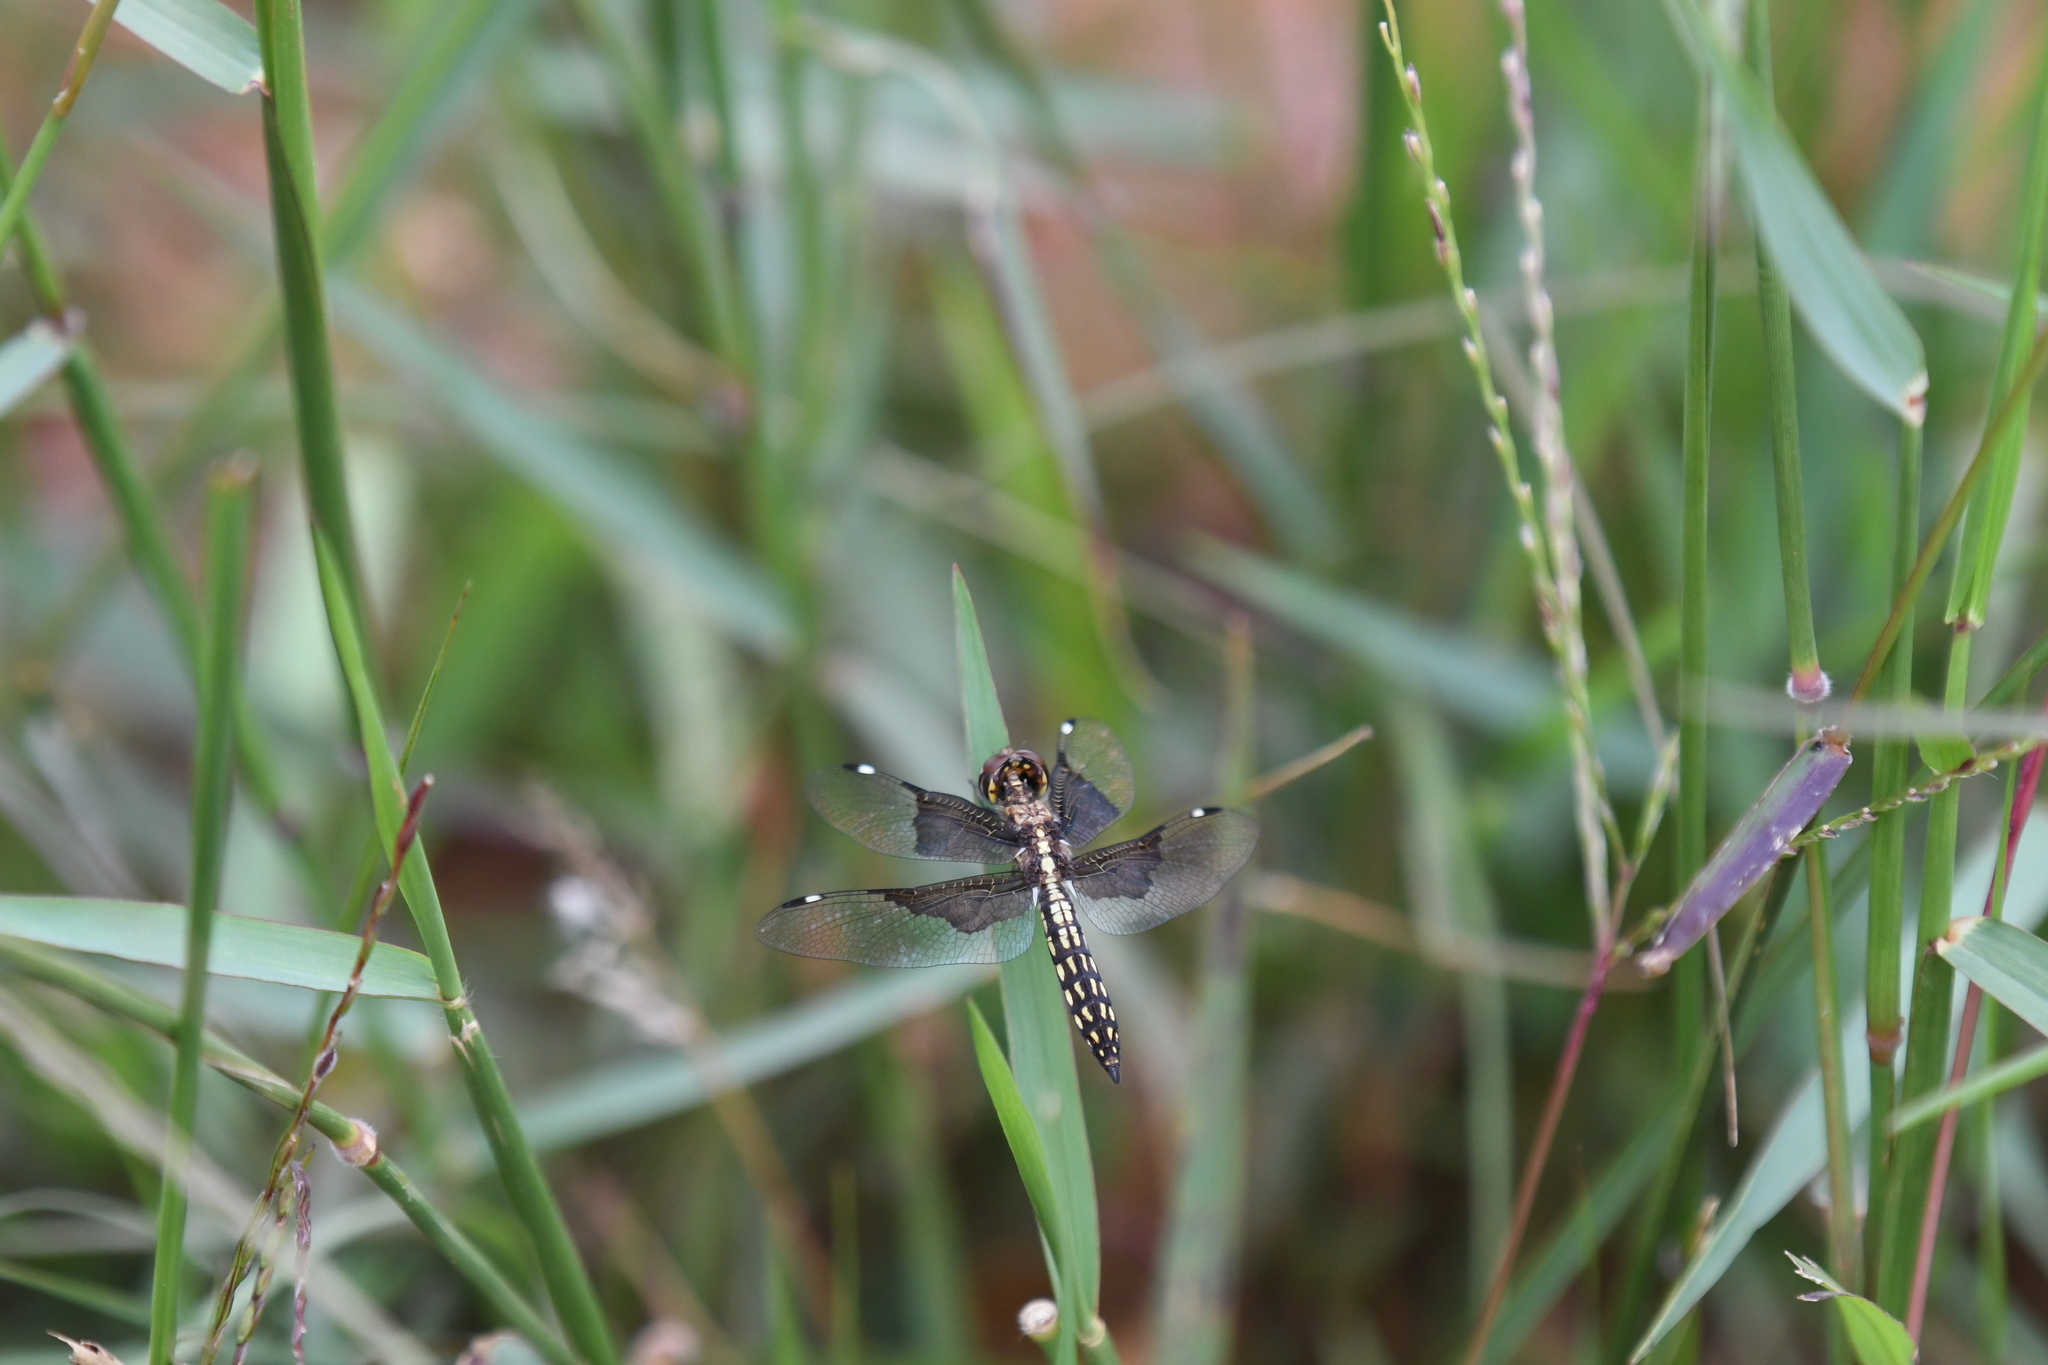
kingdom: Animalia
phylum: Arthropoda
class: Insecta
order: Odonata
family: Libellulidae
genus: Palpopleura
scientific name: Palpopleura vestita
